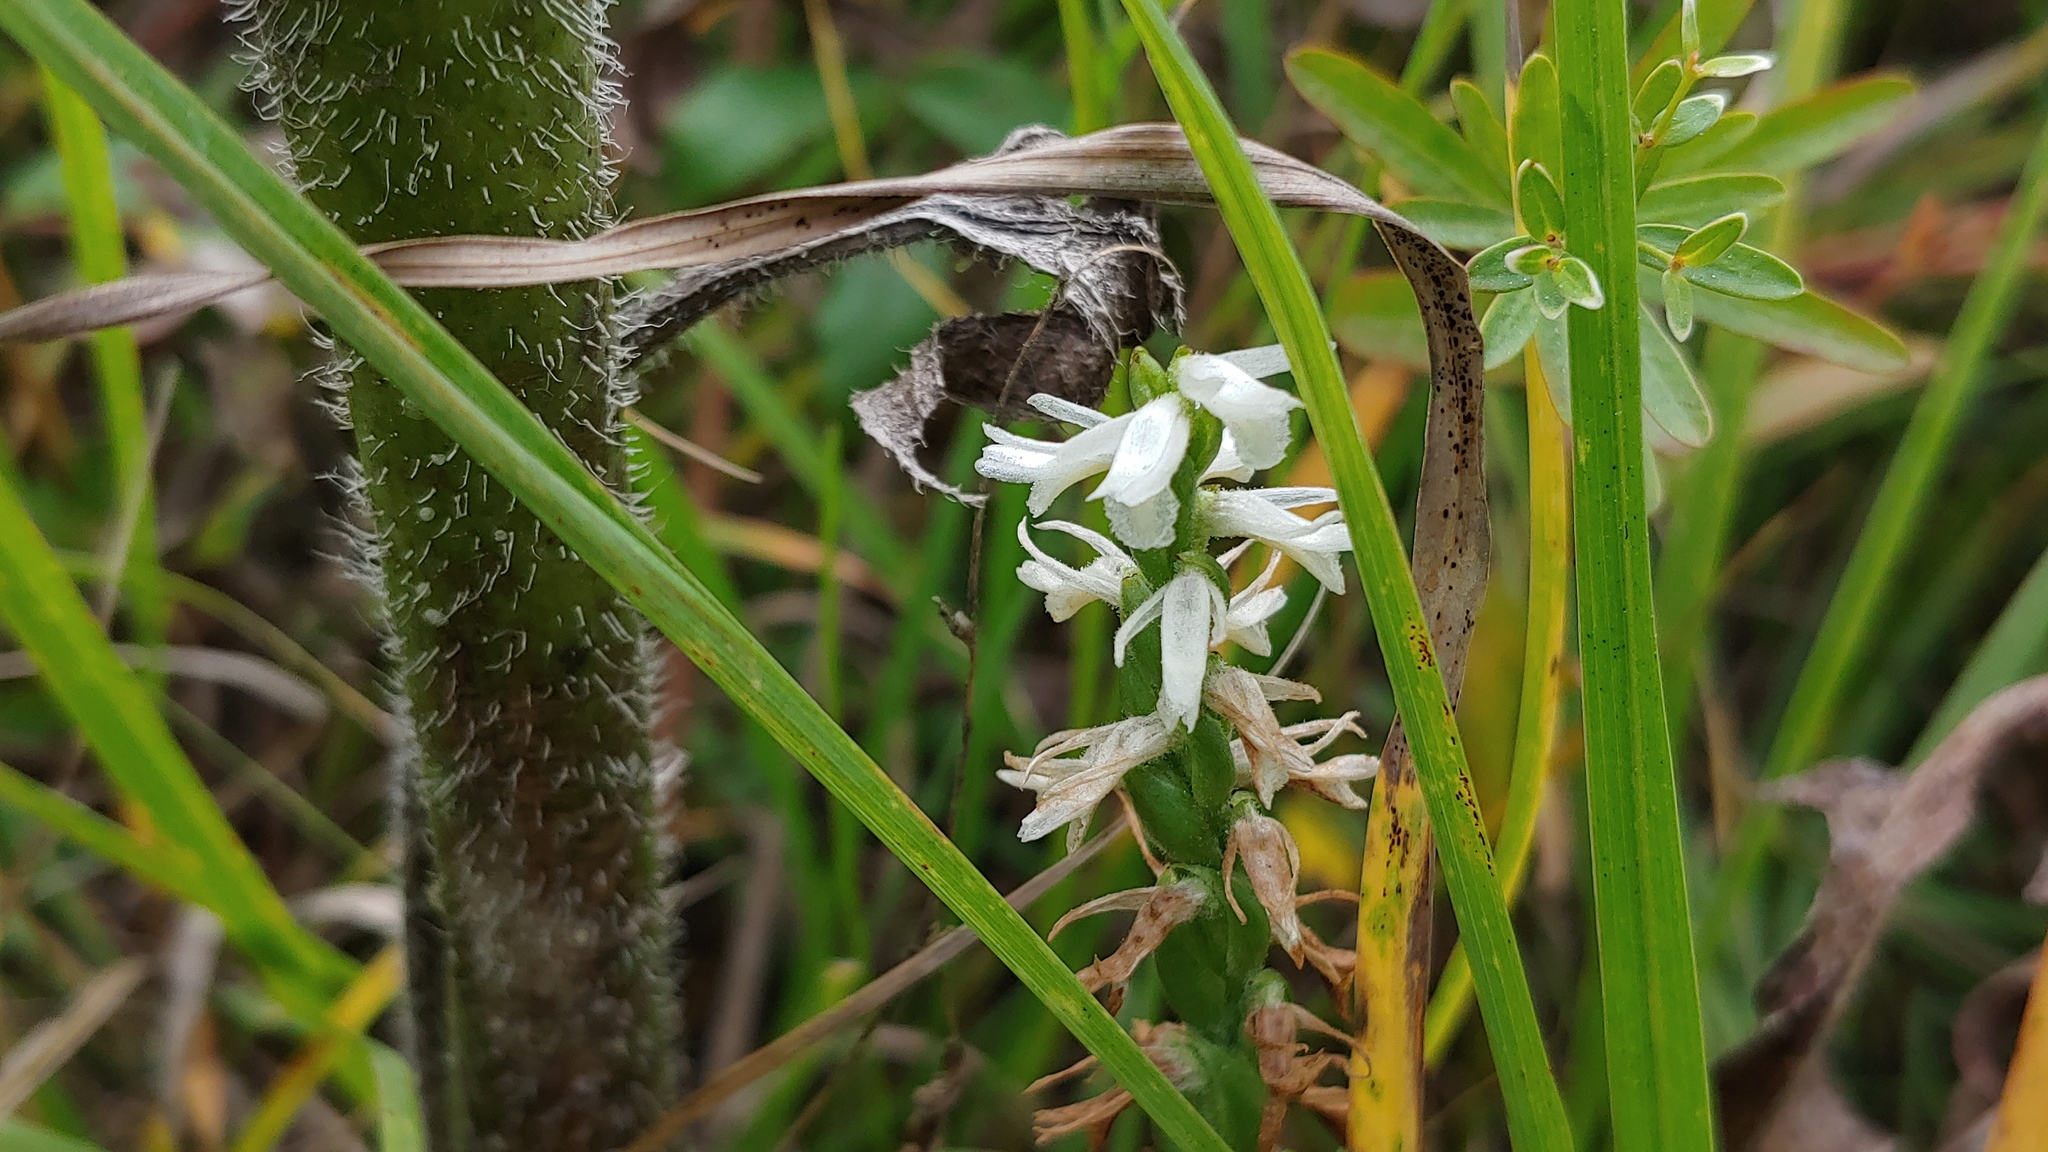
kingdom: Plantae
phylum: Tracheophyta
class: Liliopsida
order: Asparagales
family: Orchidaceae
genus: Spiranthes
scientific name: Spiranthes magnicamporum
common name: Great plains ladies'-tresses
